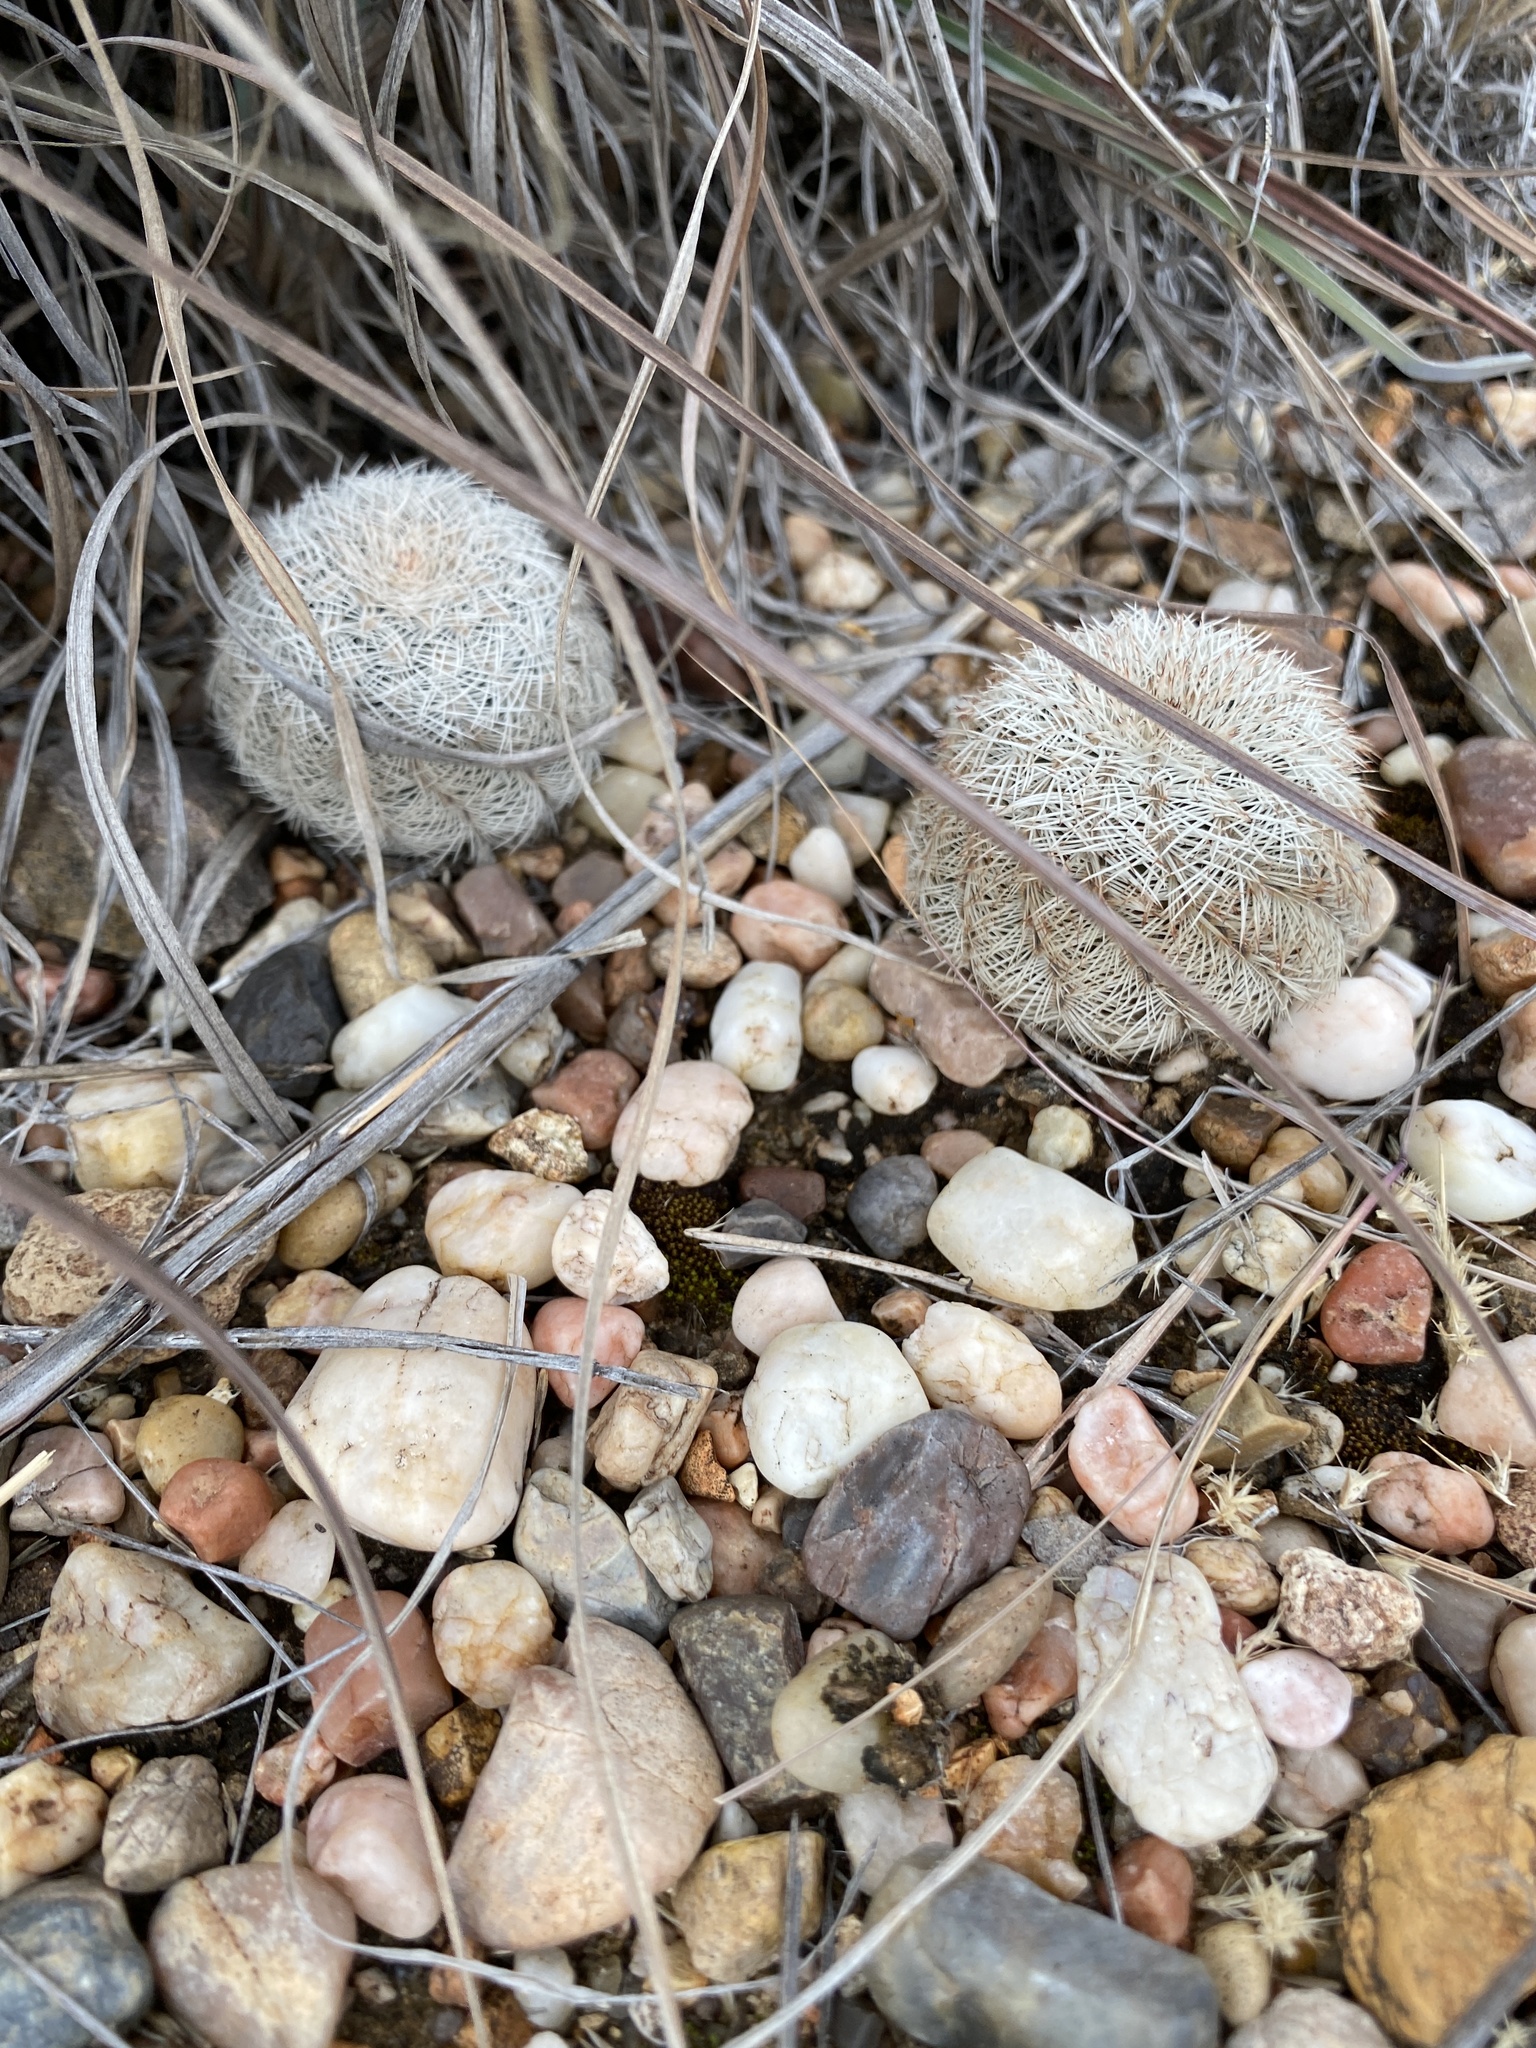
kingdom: Plantae
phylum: Tracheophyta
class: Magnoliopsida
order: Caryophyllales
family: Cactaceae
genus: Echinocereus
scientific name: Echinocereus reichenbachii
